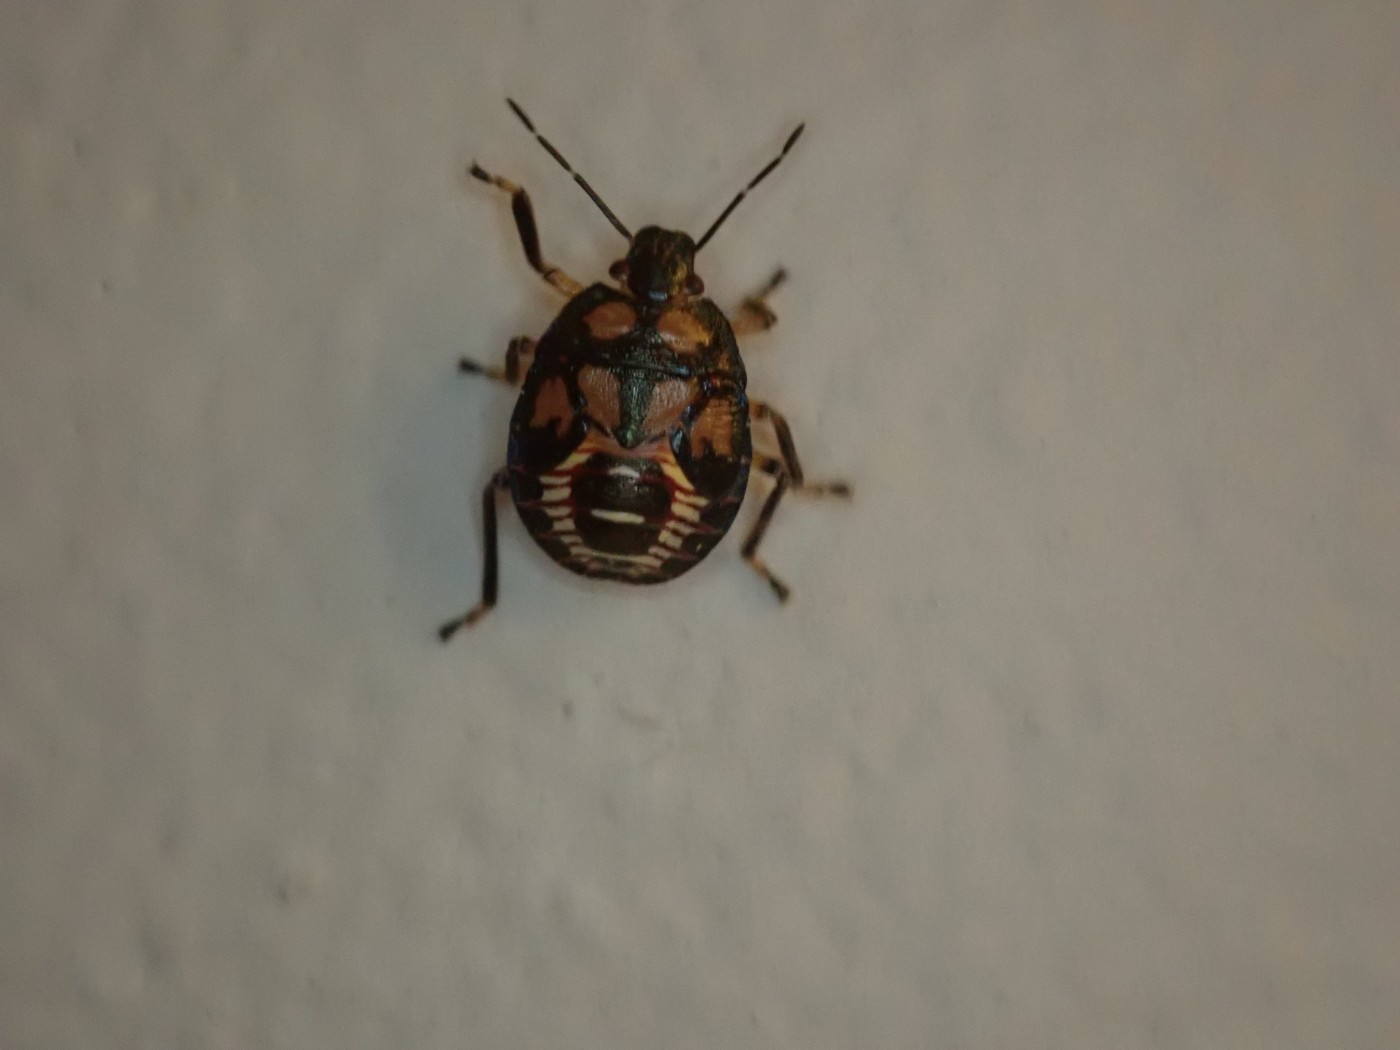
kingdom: Animalia
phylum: Arthropoda
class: Insecta
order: Hemiptera
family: Pentatomidae
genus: Podisus
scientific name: Podisus
